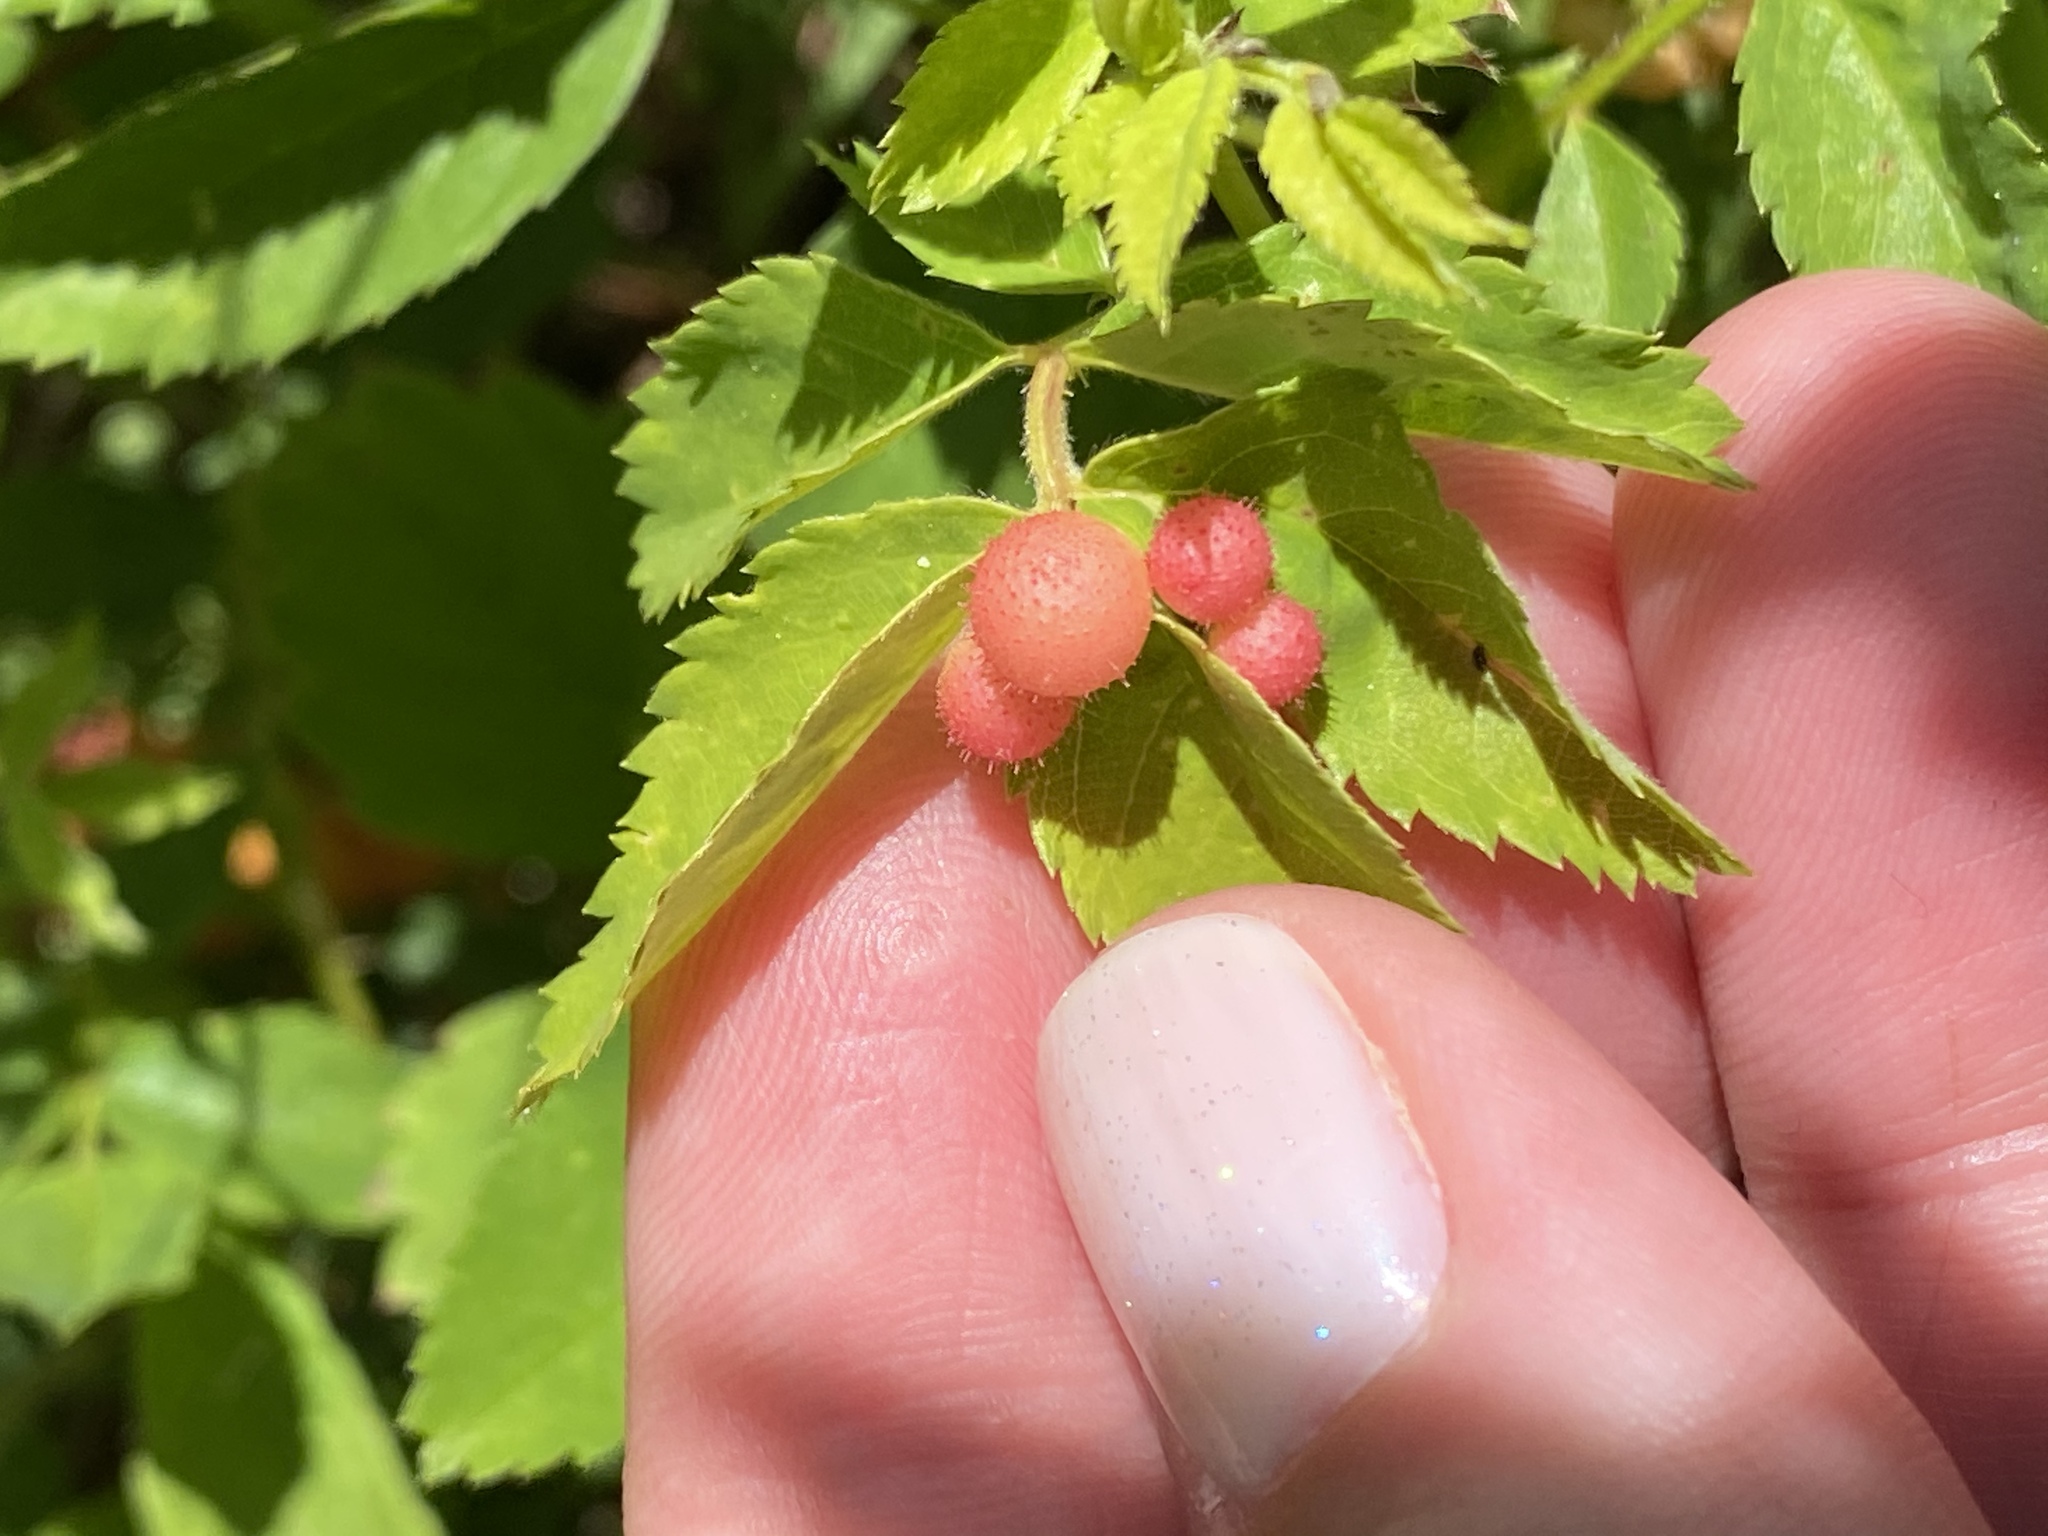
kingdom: Animalia
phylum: Arthropoda
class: Insecta
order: Hymenoptera
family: Cynipidae
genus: Diplolepis
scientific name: Diplolepis polita
